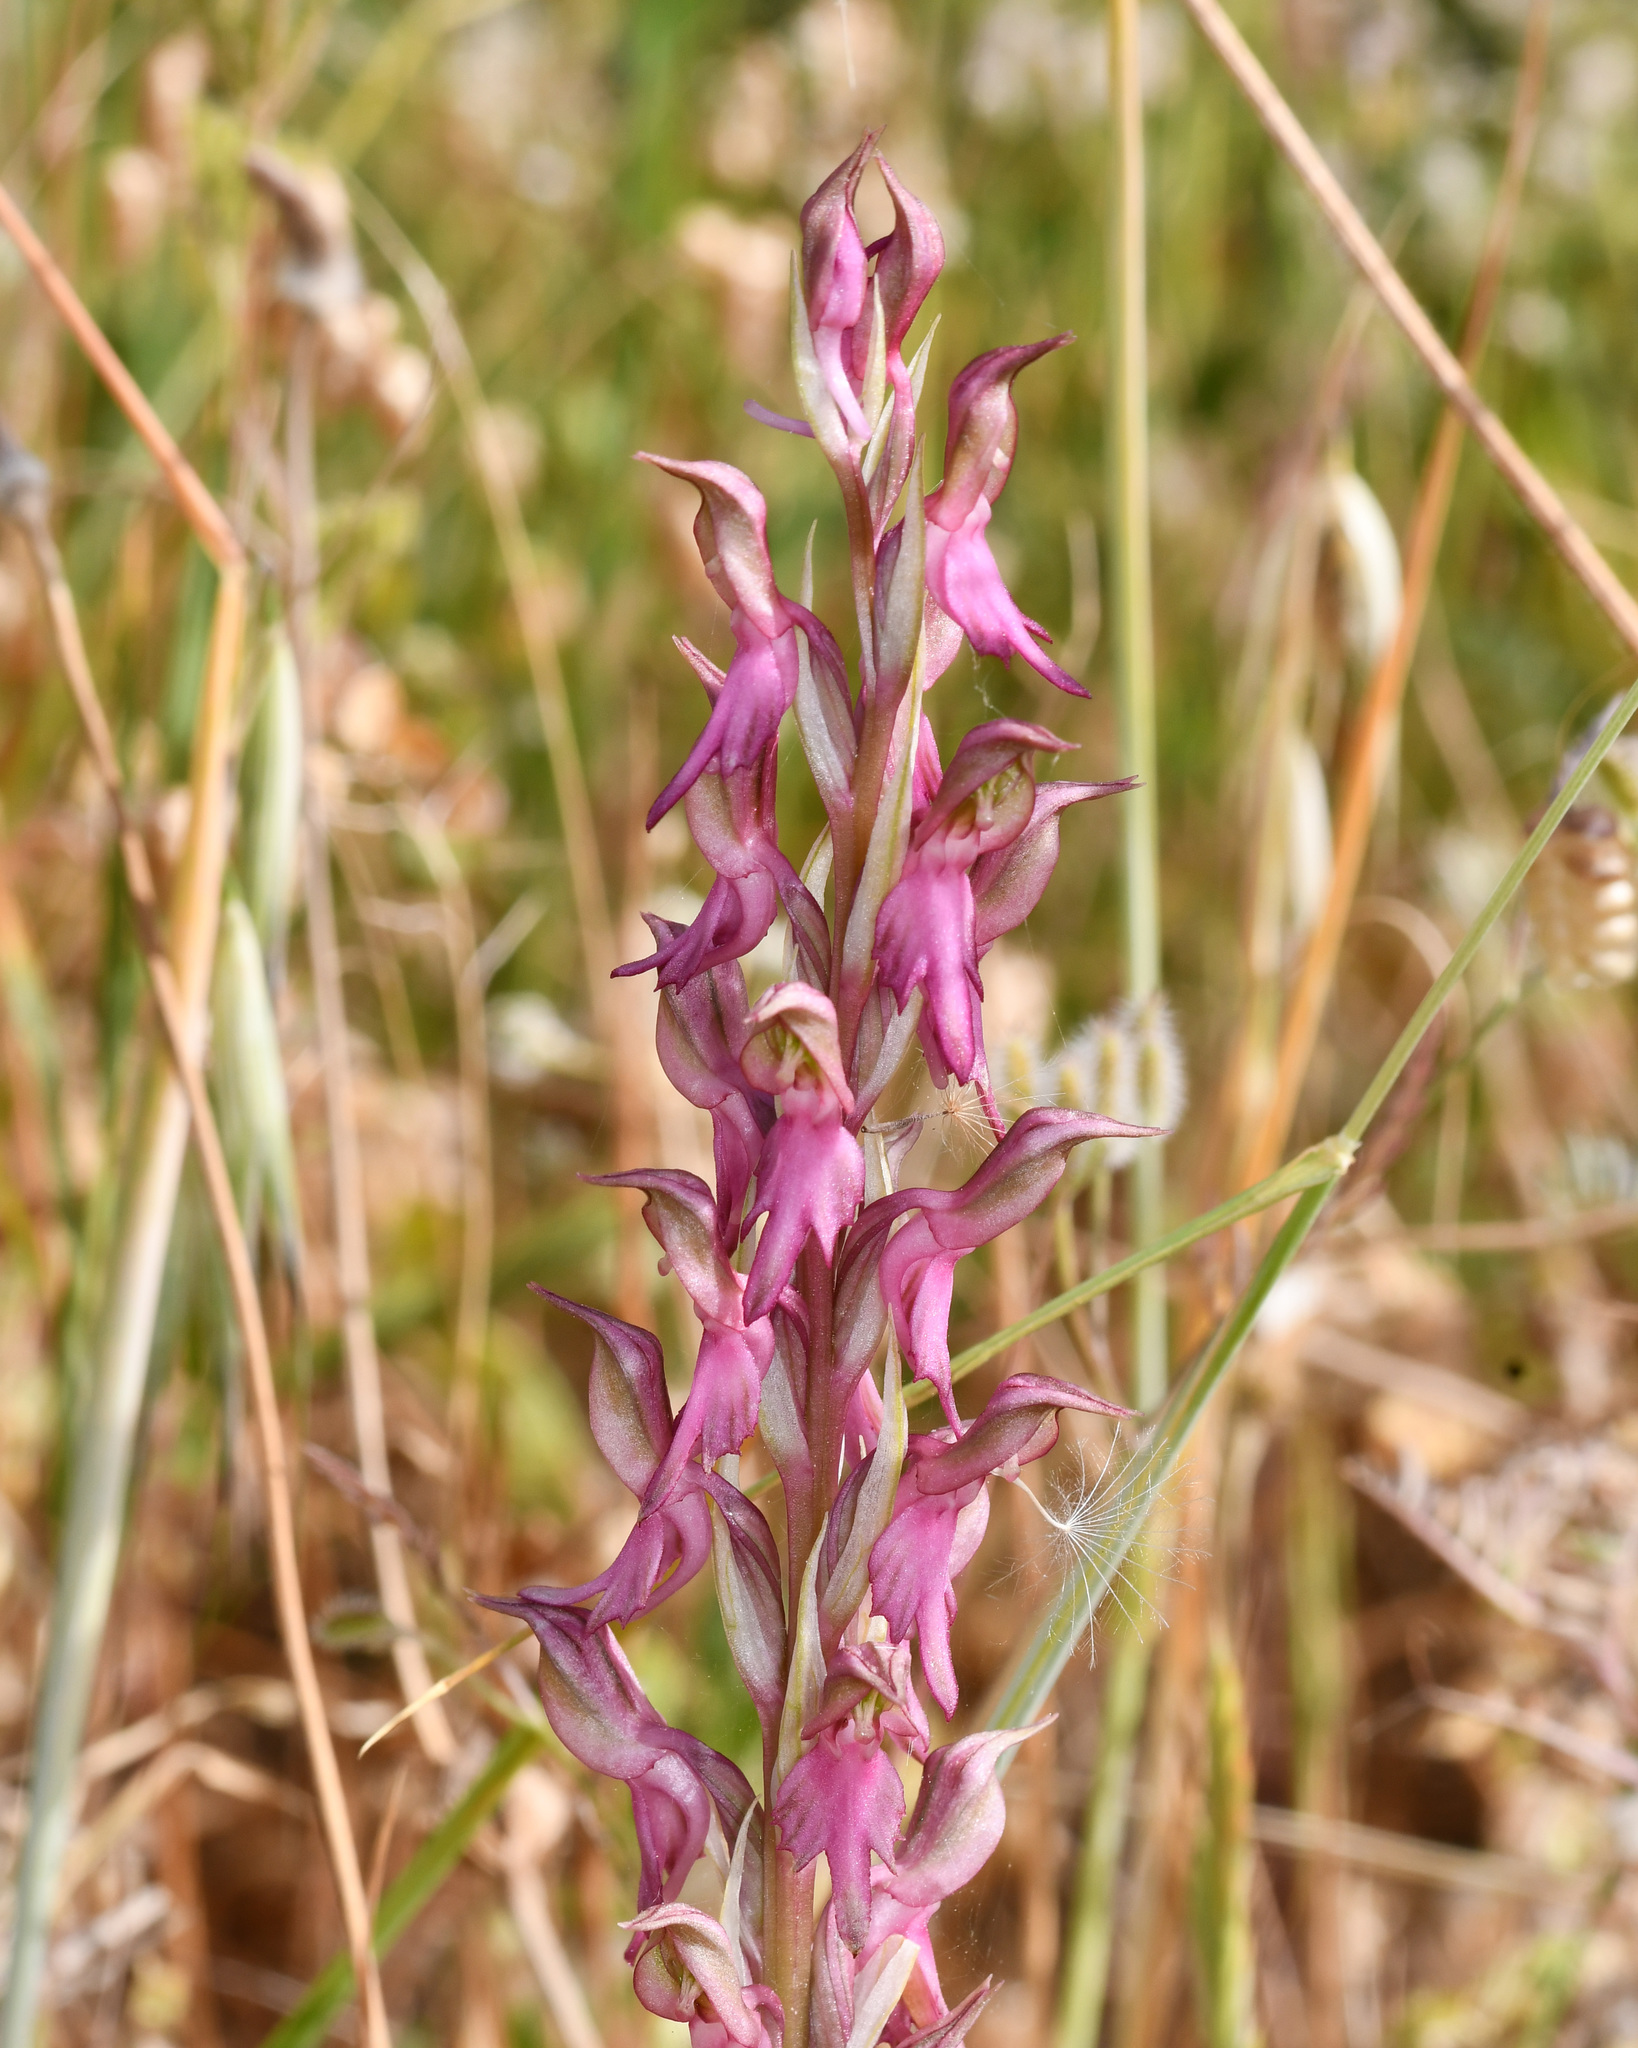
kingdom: Plantae
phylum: Tracheophyta
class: Liliopsida
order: Asparagales
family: Orchidaceae
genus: Anacamptis
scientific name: Anacamptis sancta
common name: Holy orchid
